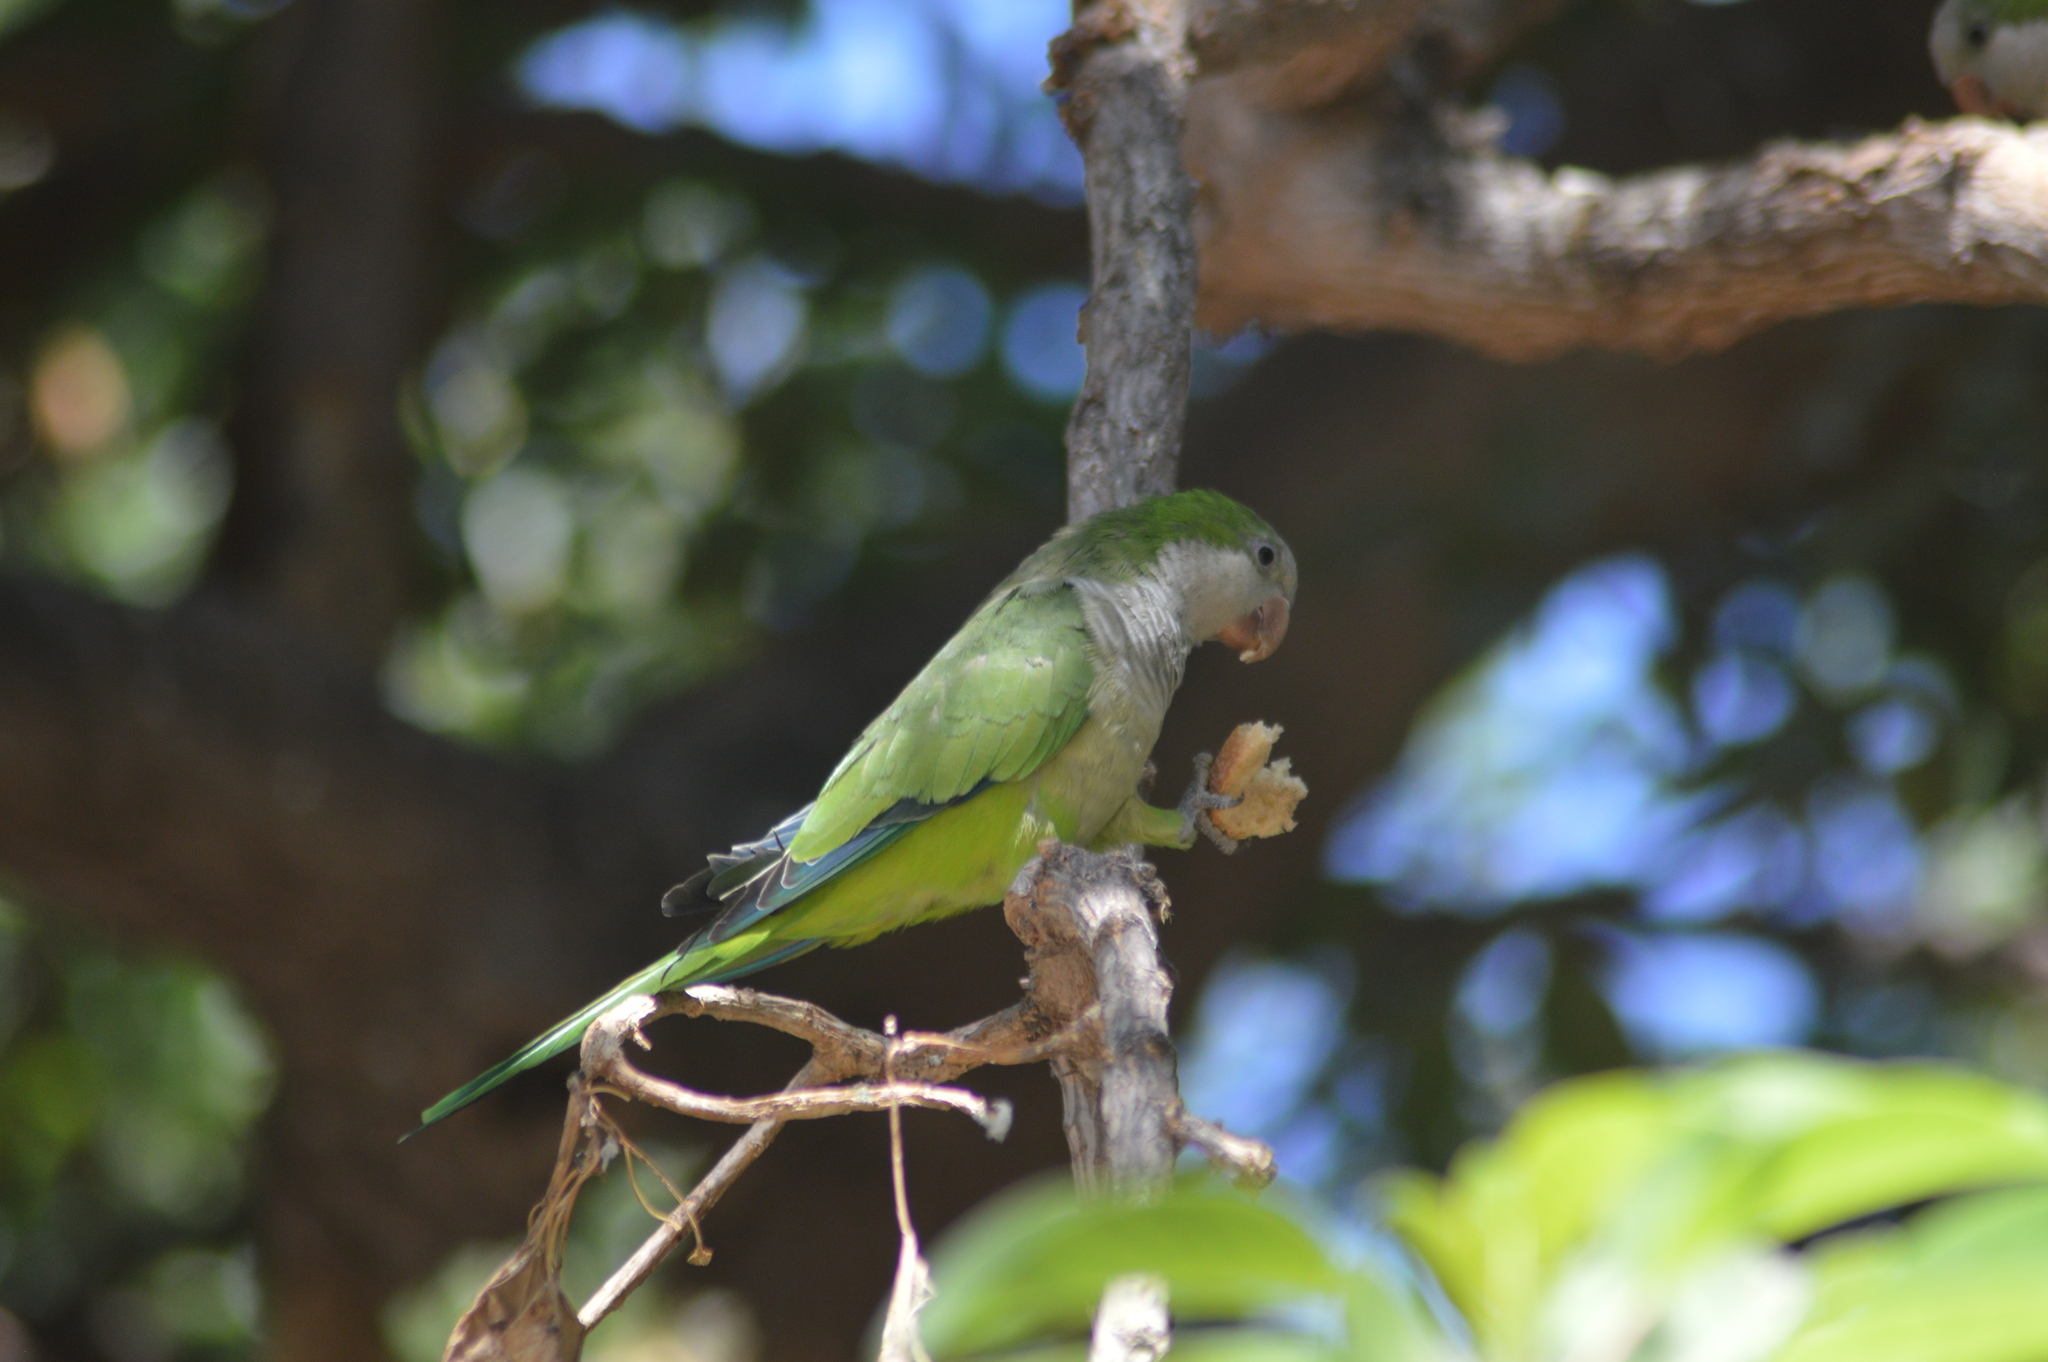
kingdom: Animalia
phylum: Chordata
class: Aves
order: Psittaciformes
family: Psittacidae
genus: Myiopsitta
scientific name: Myiopsitta monachus
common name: Monk parakeet
